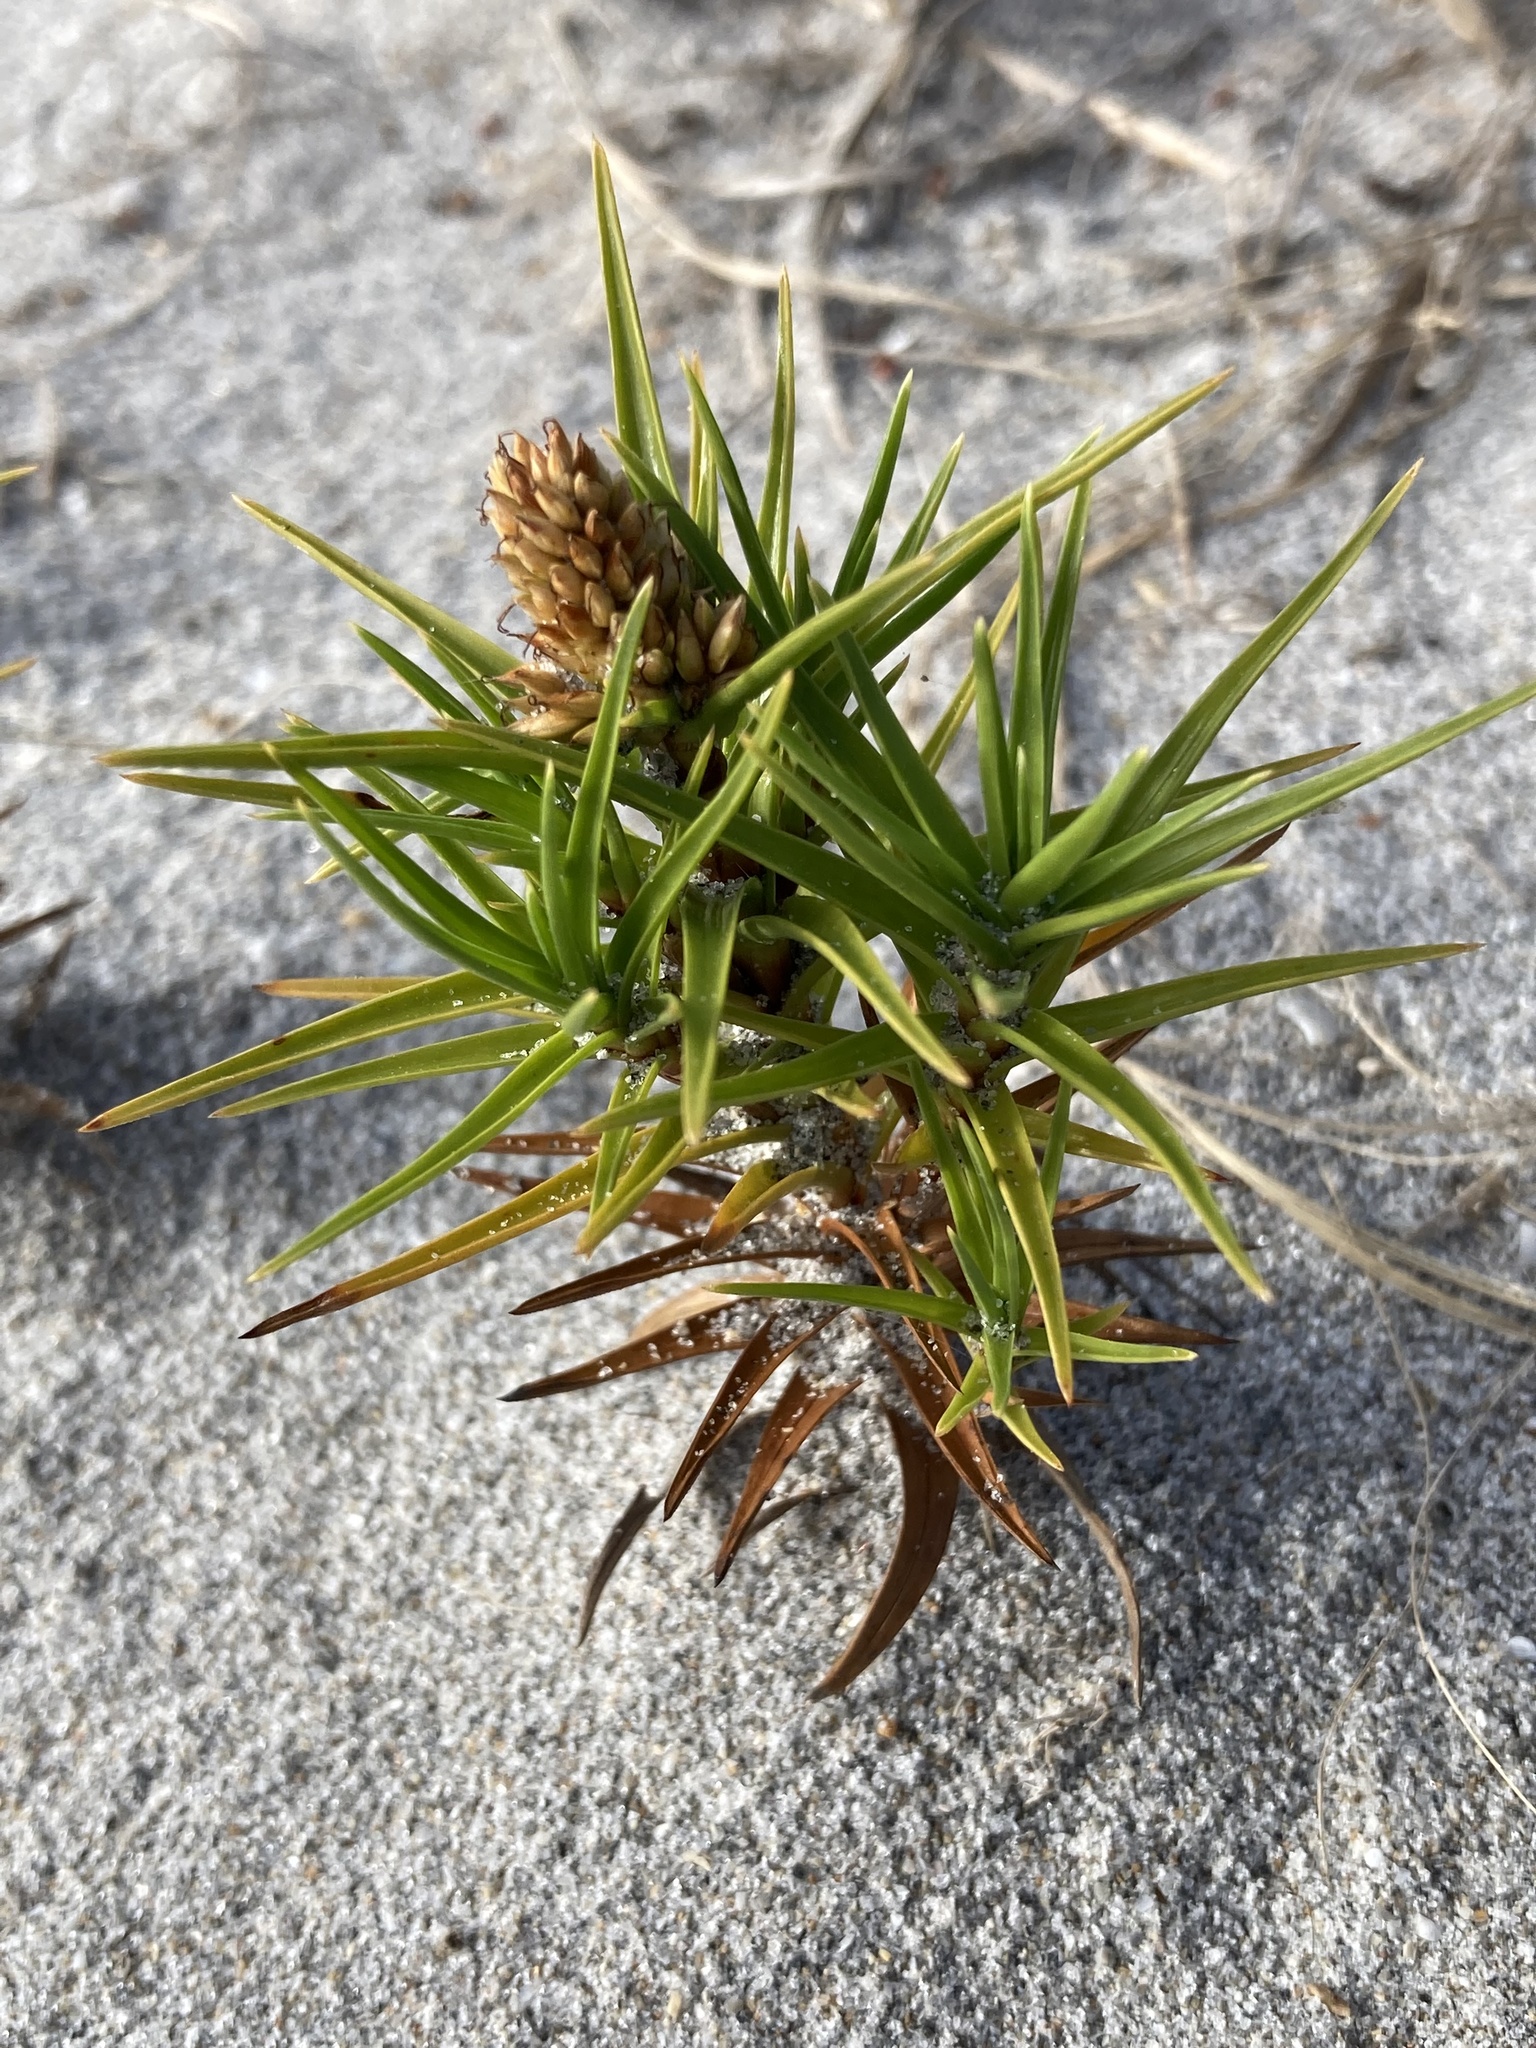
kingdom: Plantae
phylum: Tracheophyta
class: Liliopsida
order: Poales
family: Cyperaceae
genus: Cyperus
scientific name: Cyperus pedunculatus
